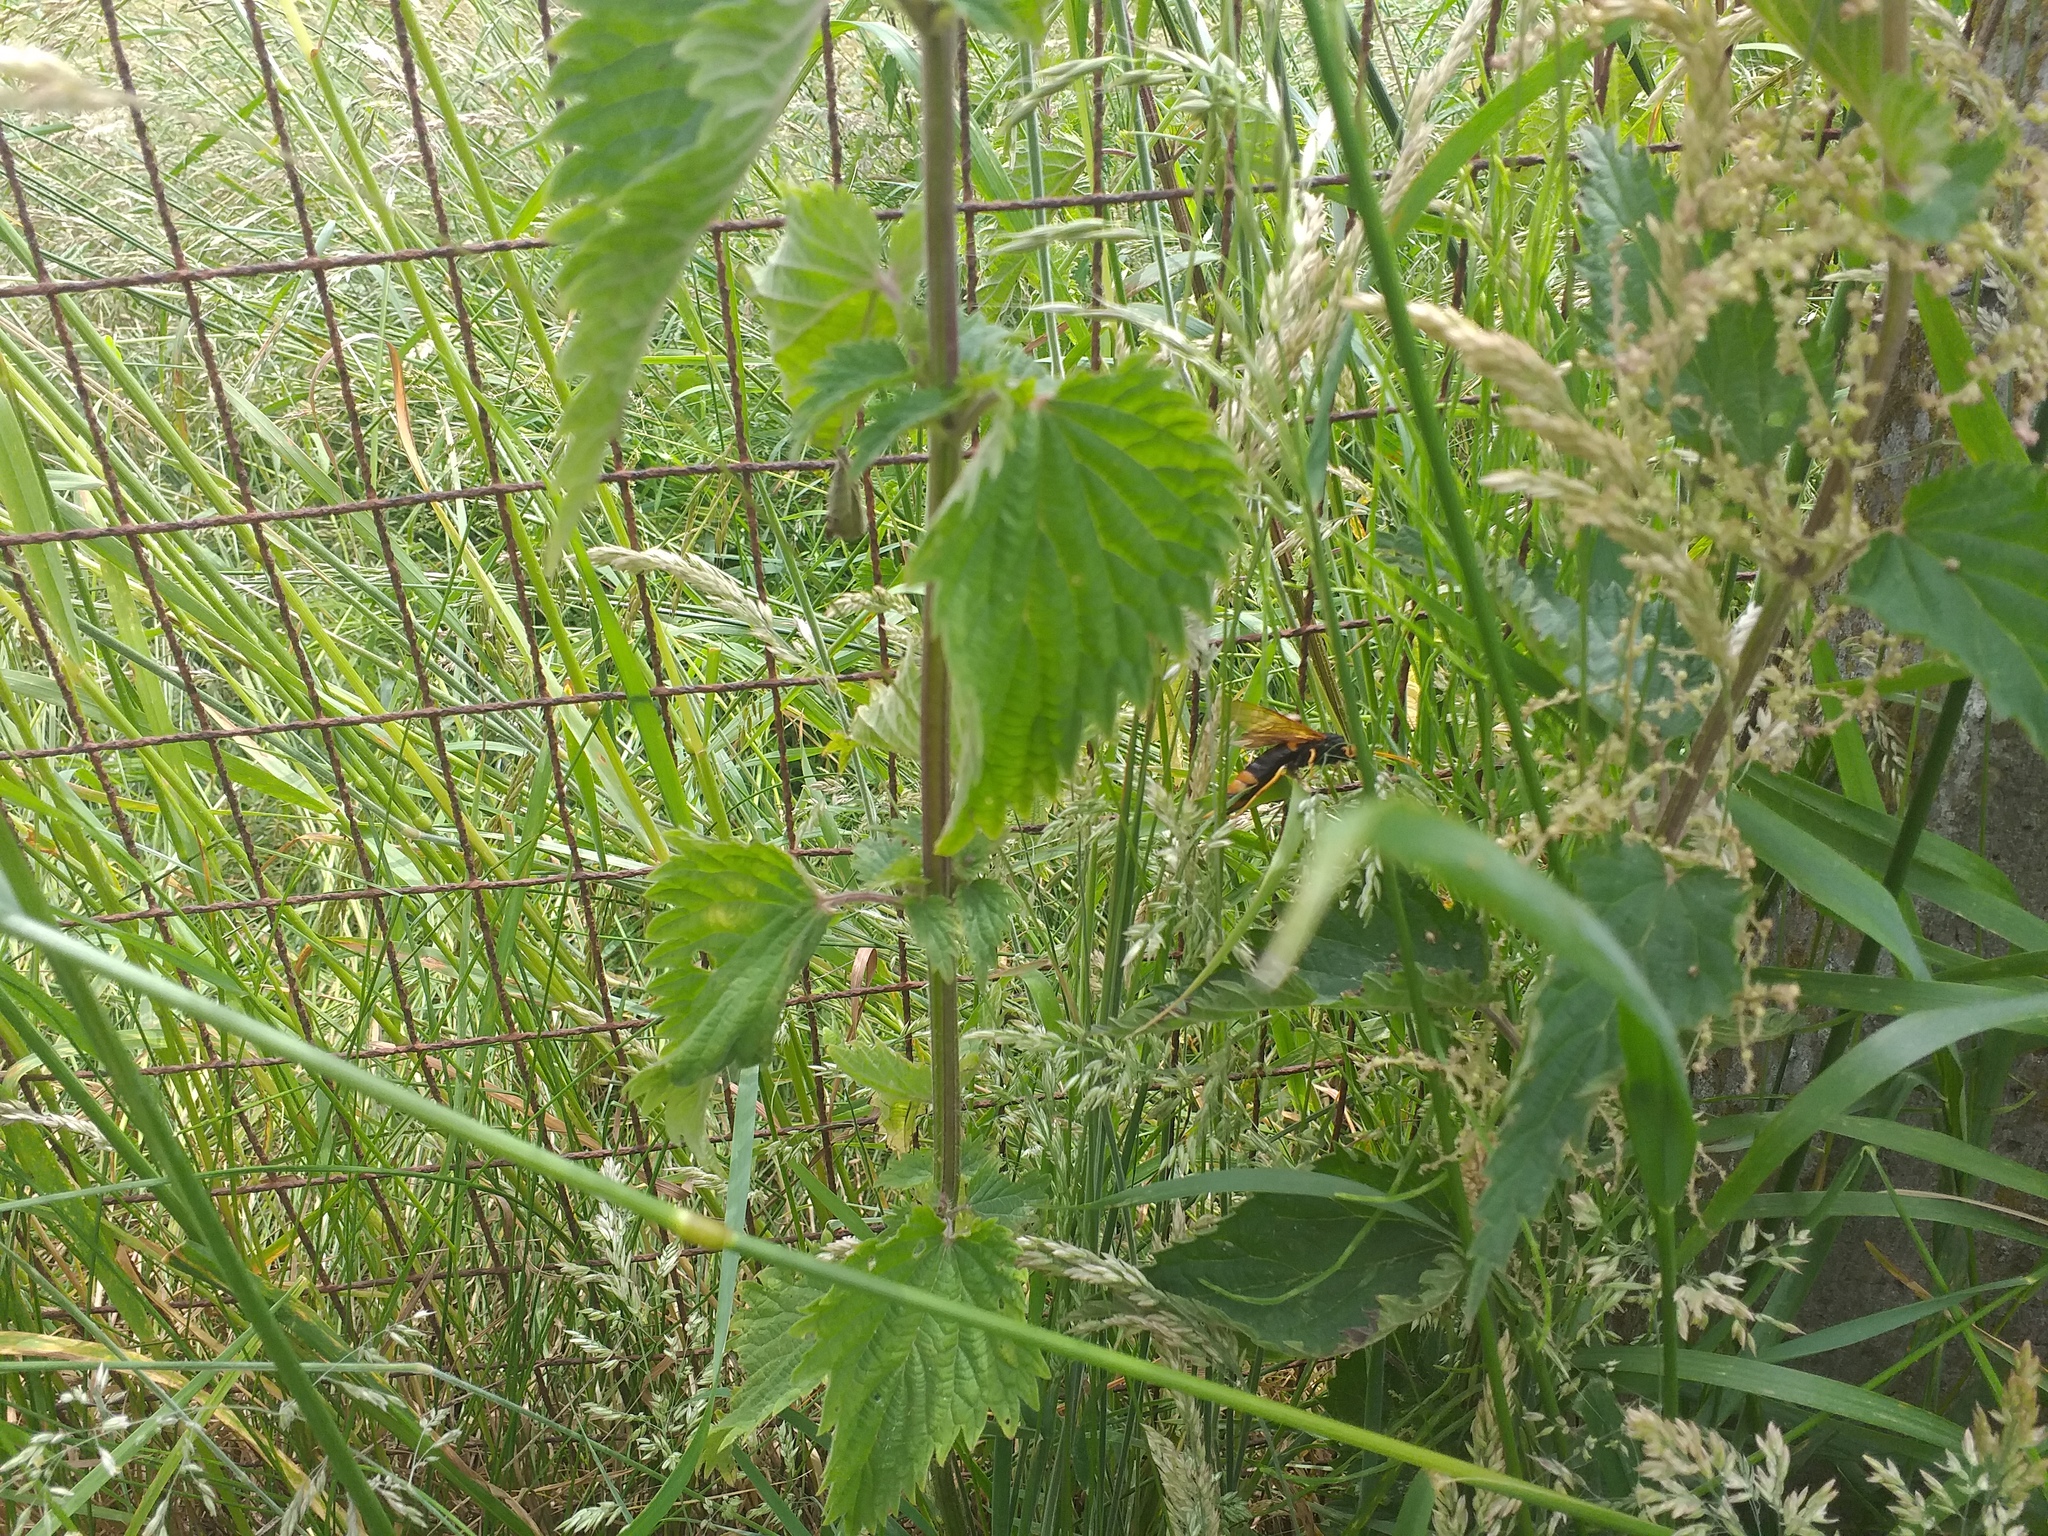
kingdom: Animalia
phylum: Arthropoda
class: Insecta
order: Hymenoptera
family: Siricidae
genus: Urocerus
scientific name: Urocerus gigas
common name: Giant woodwasp
